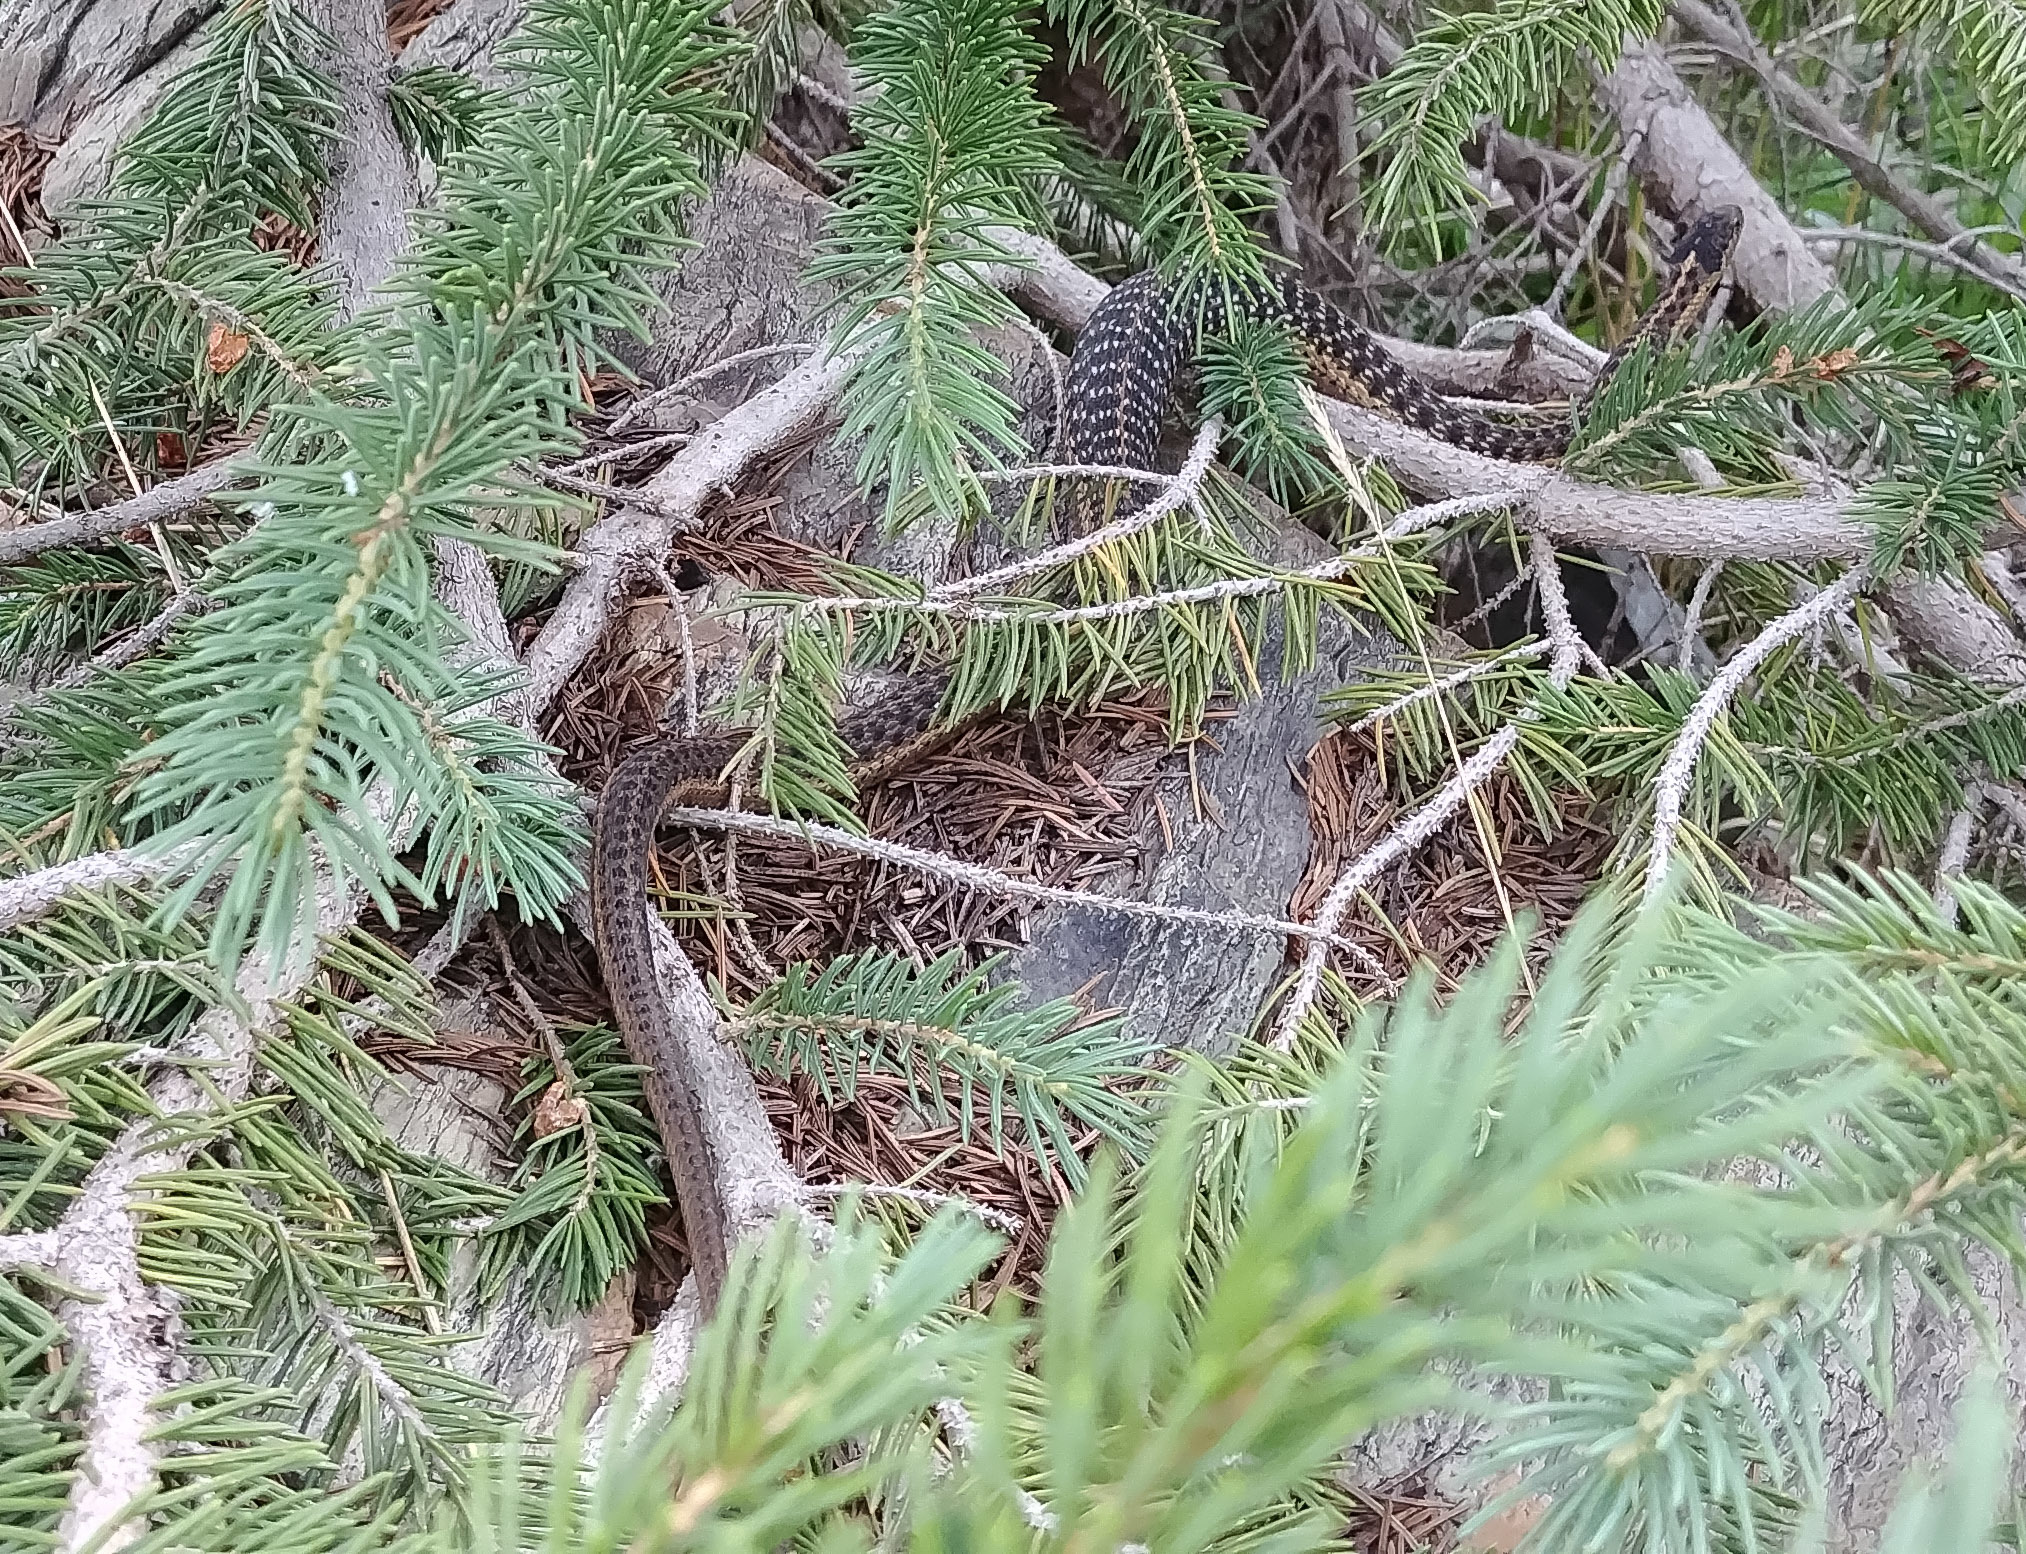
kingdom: Animalia
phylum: Chordata
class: Squamata
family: Colubridae
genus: Thamnophis
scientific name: Thamnophis elegans
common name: Western terrestrial garter snake
